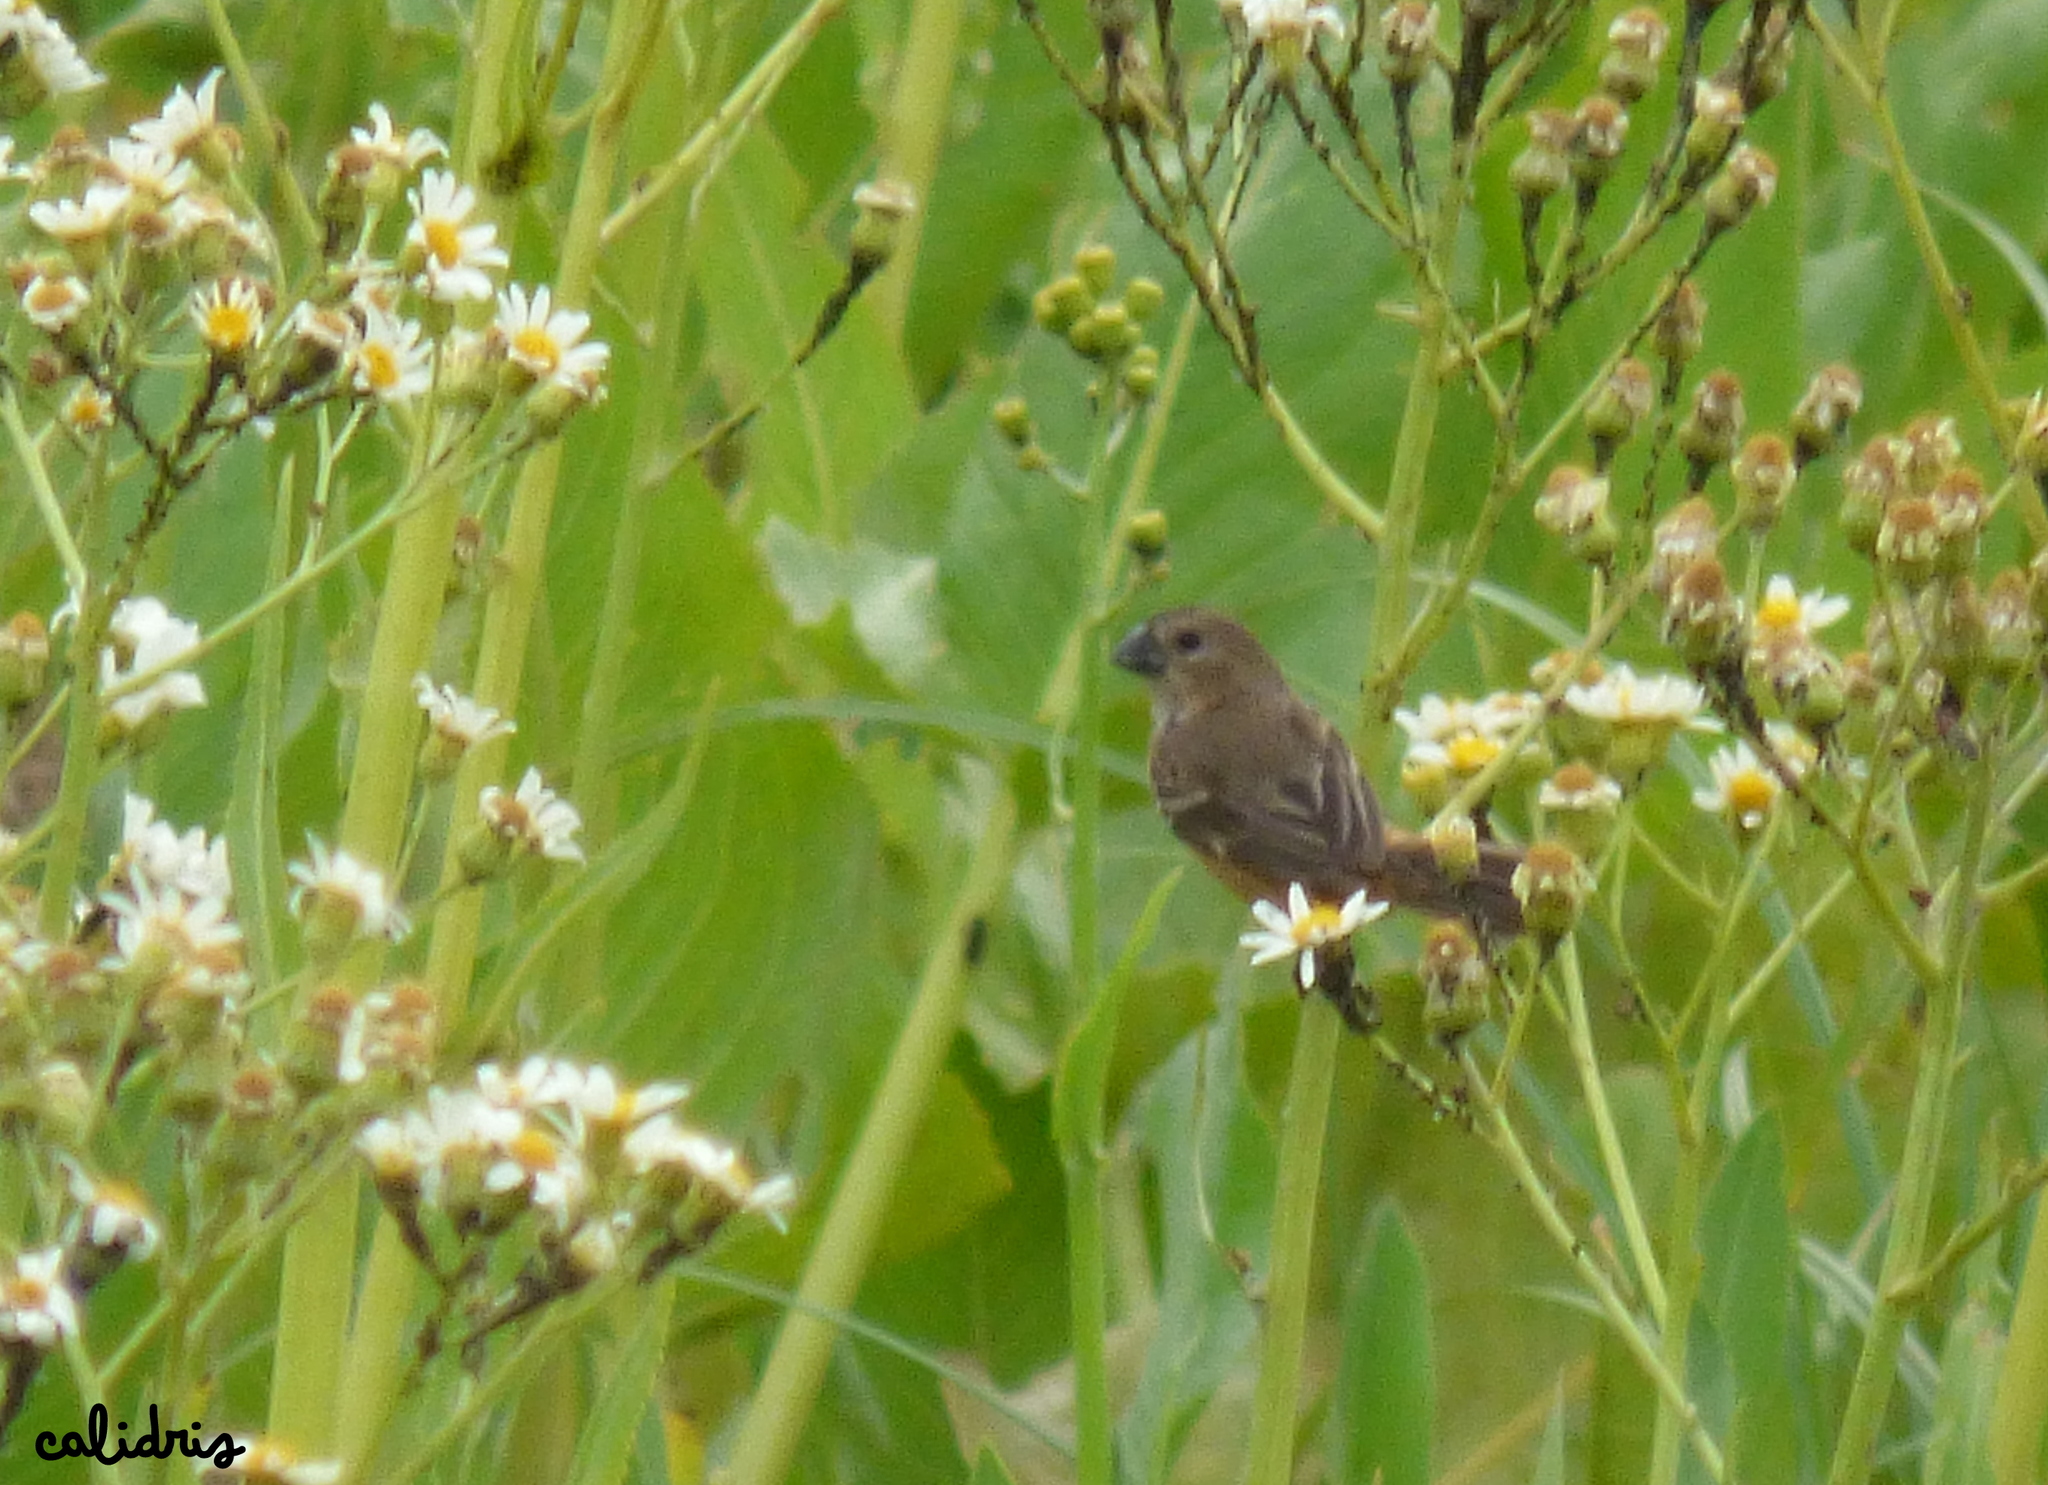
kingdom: Animalia
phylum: Chordata
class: Aves
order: Passeriformes
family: Thraupidae
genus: Sporophila
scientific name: Sporophila collaris
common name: Rusty-collared seedeater
